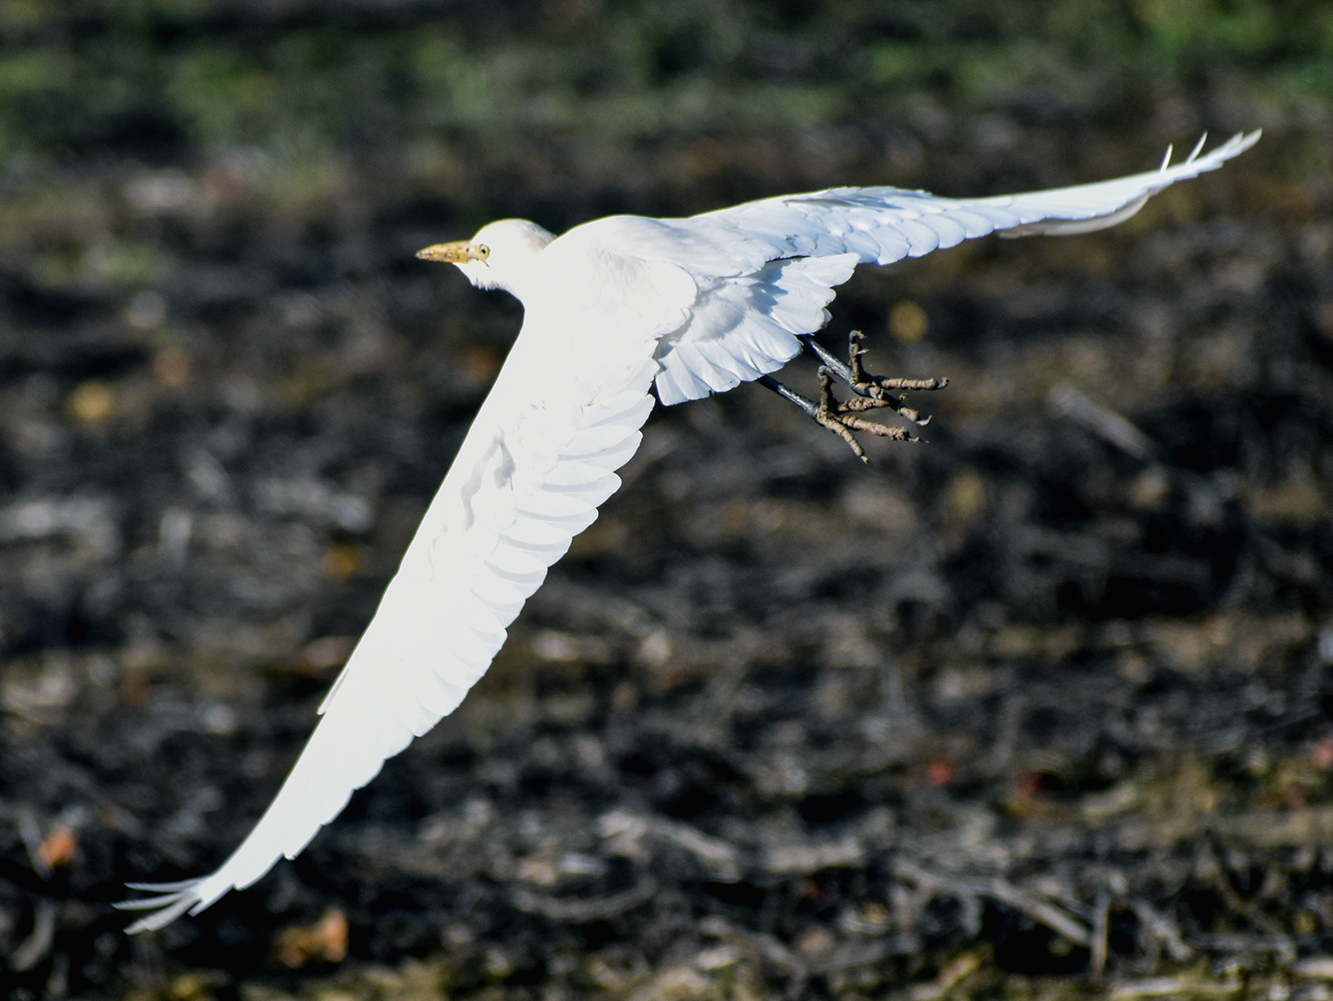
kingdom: Animalia
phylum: Chordata
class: Aves
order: Pelecaniformes
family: Ardeidae
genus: Bubulcus
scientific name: Bubulcus ibis
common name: Cattle egret
